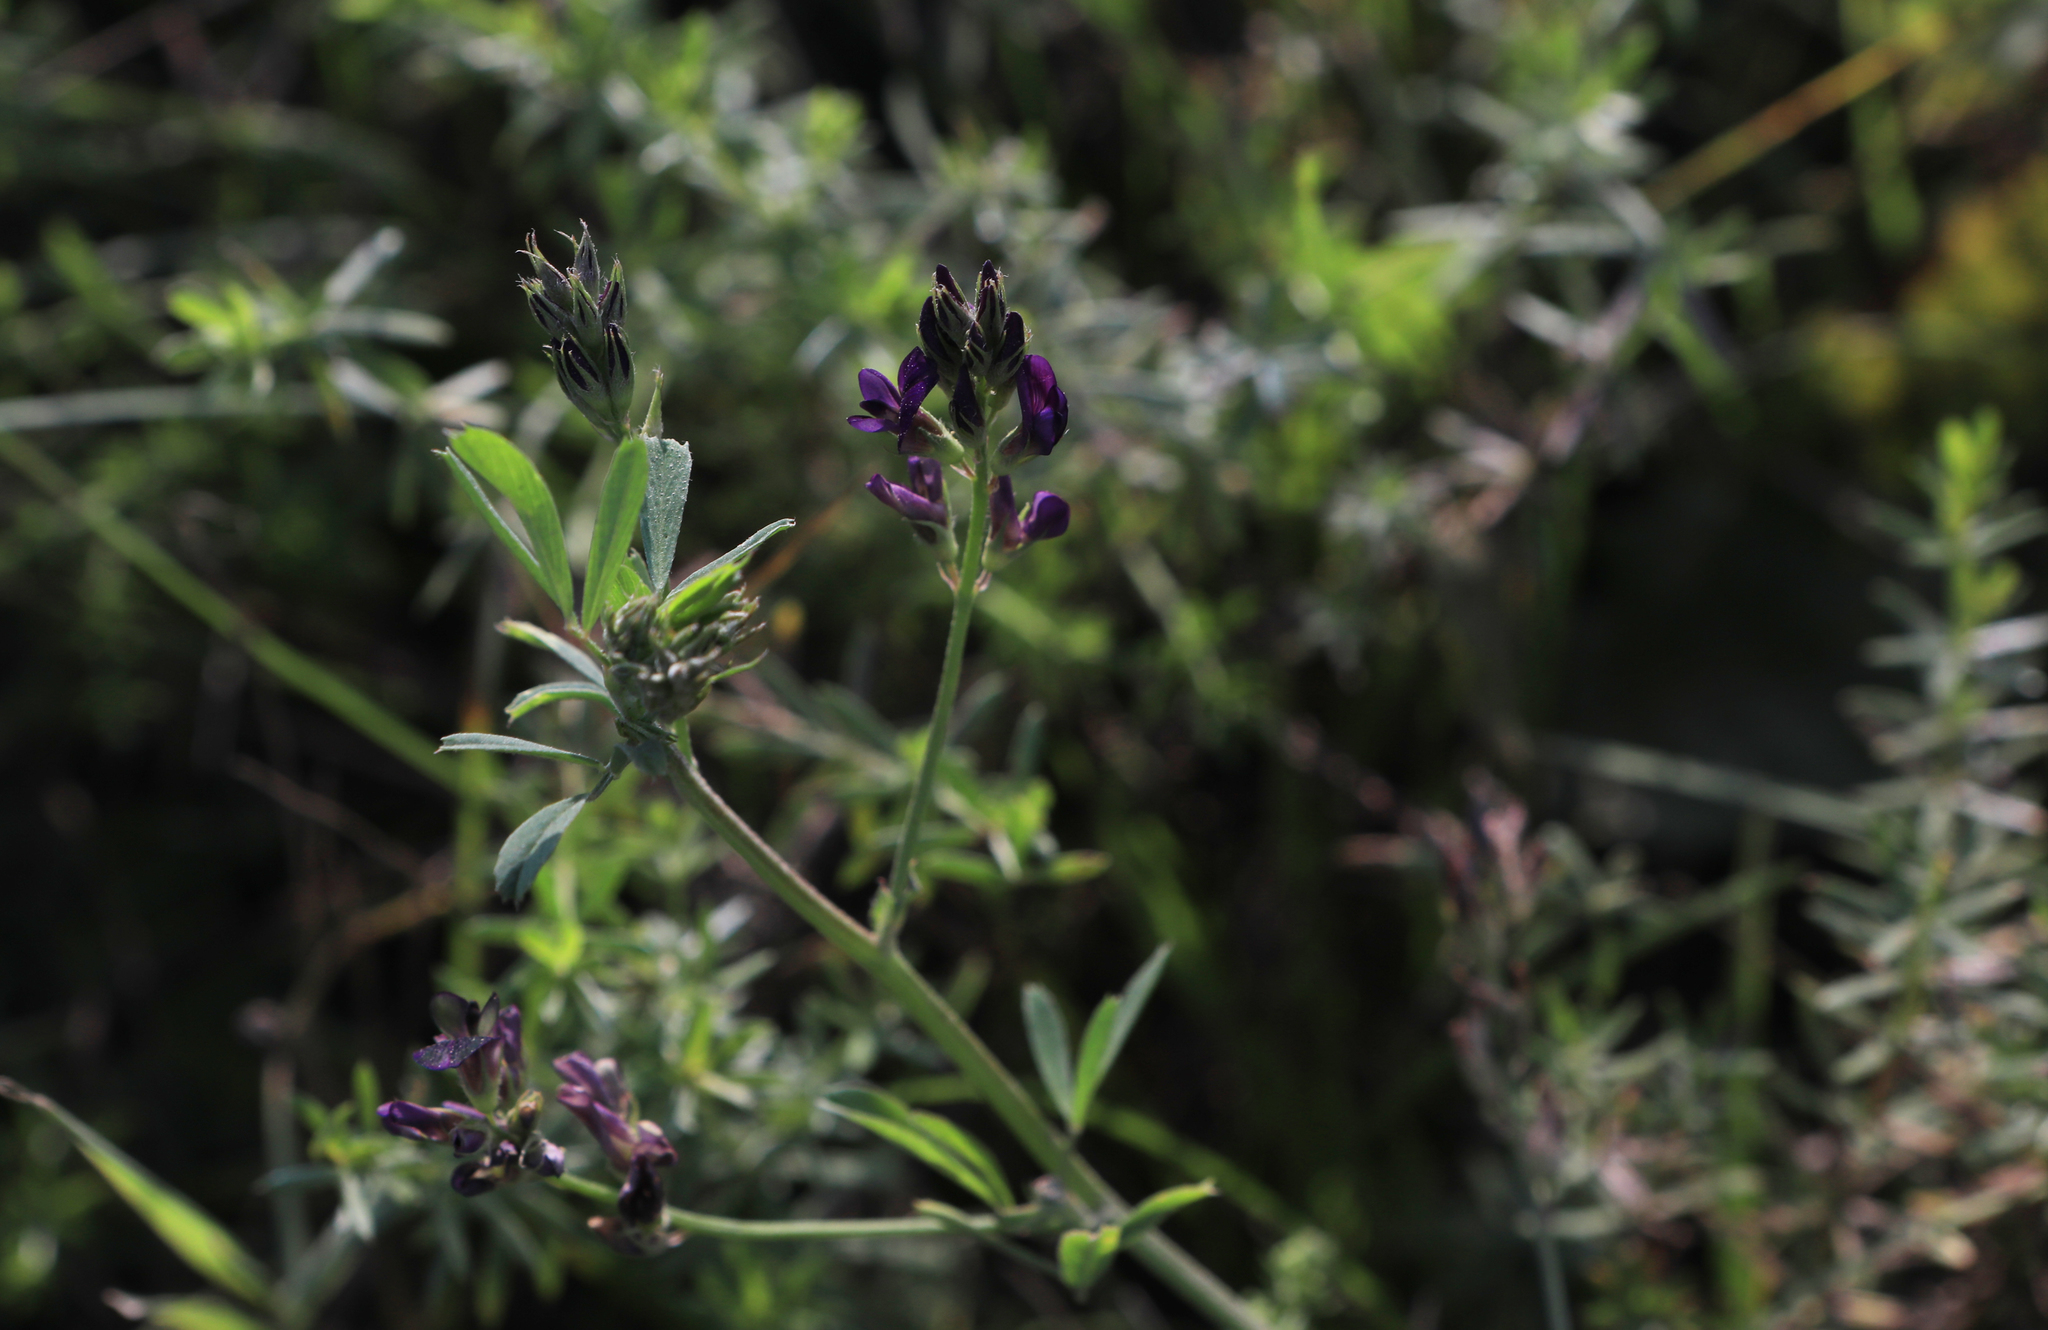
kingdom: Plantae
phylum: Tracheophyta
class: Magnoliopsida
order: Fabales
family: Fabaceae
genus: Medicago
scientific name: Medicago varia
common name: Sand lucerne
